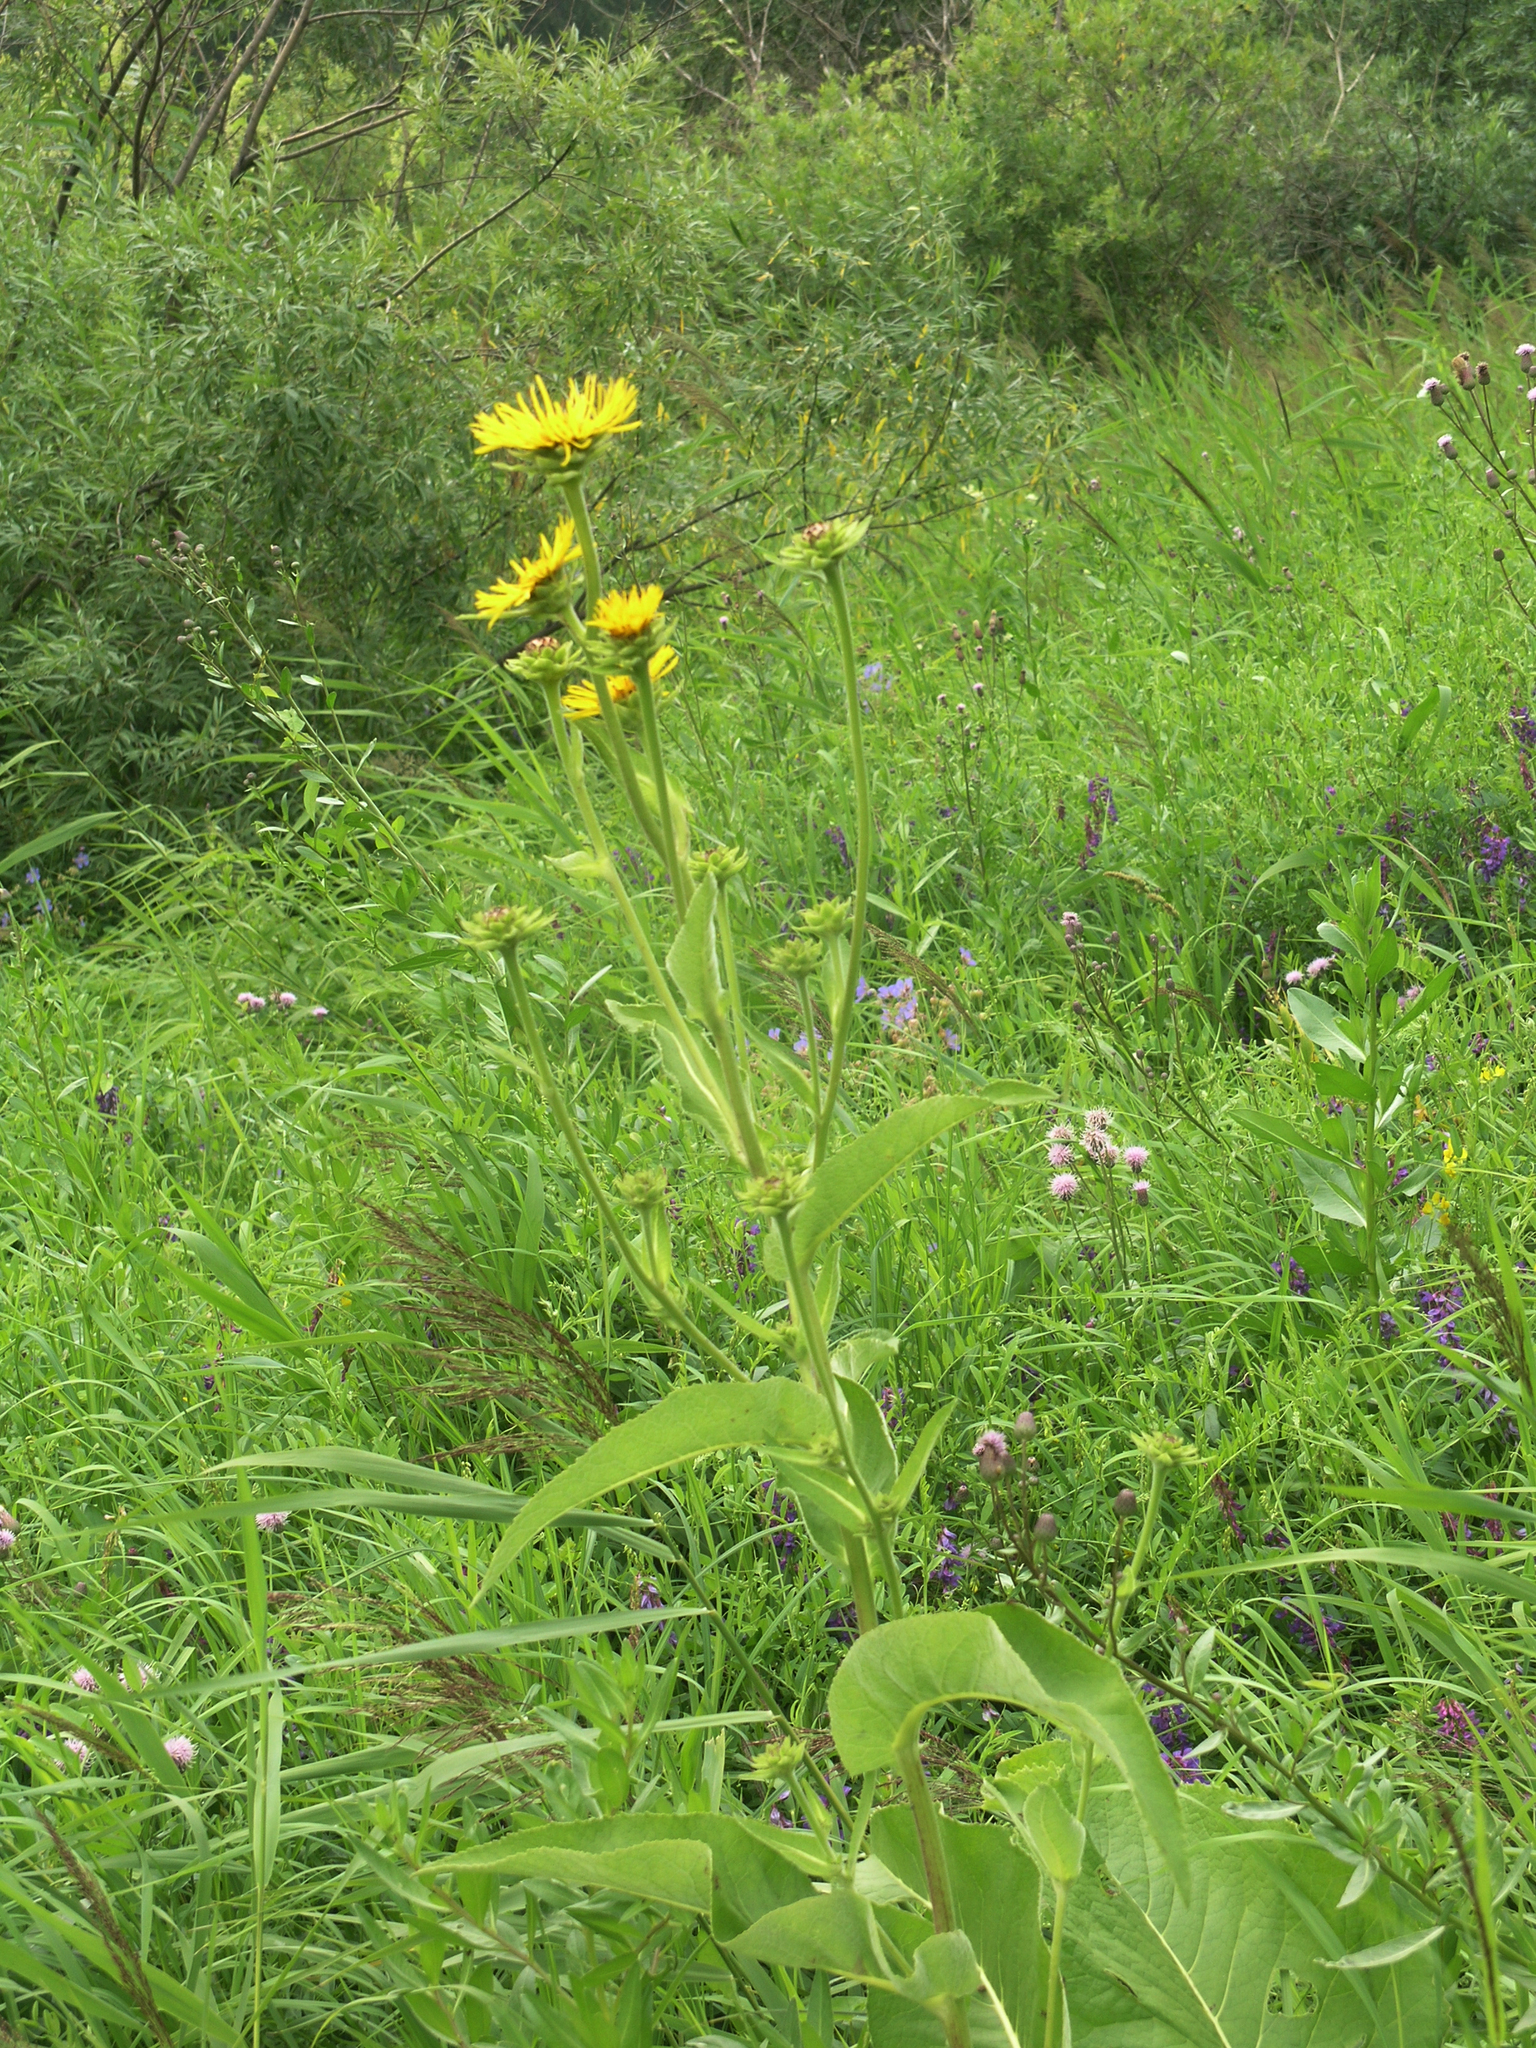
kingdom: Plantae
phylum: Tracheophyta
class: Magnoliopsida
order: Asterales
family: Asteraceae
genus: Inula
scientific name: Inula helenium
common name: Elecampane
